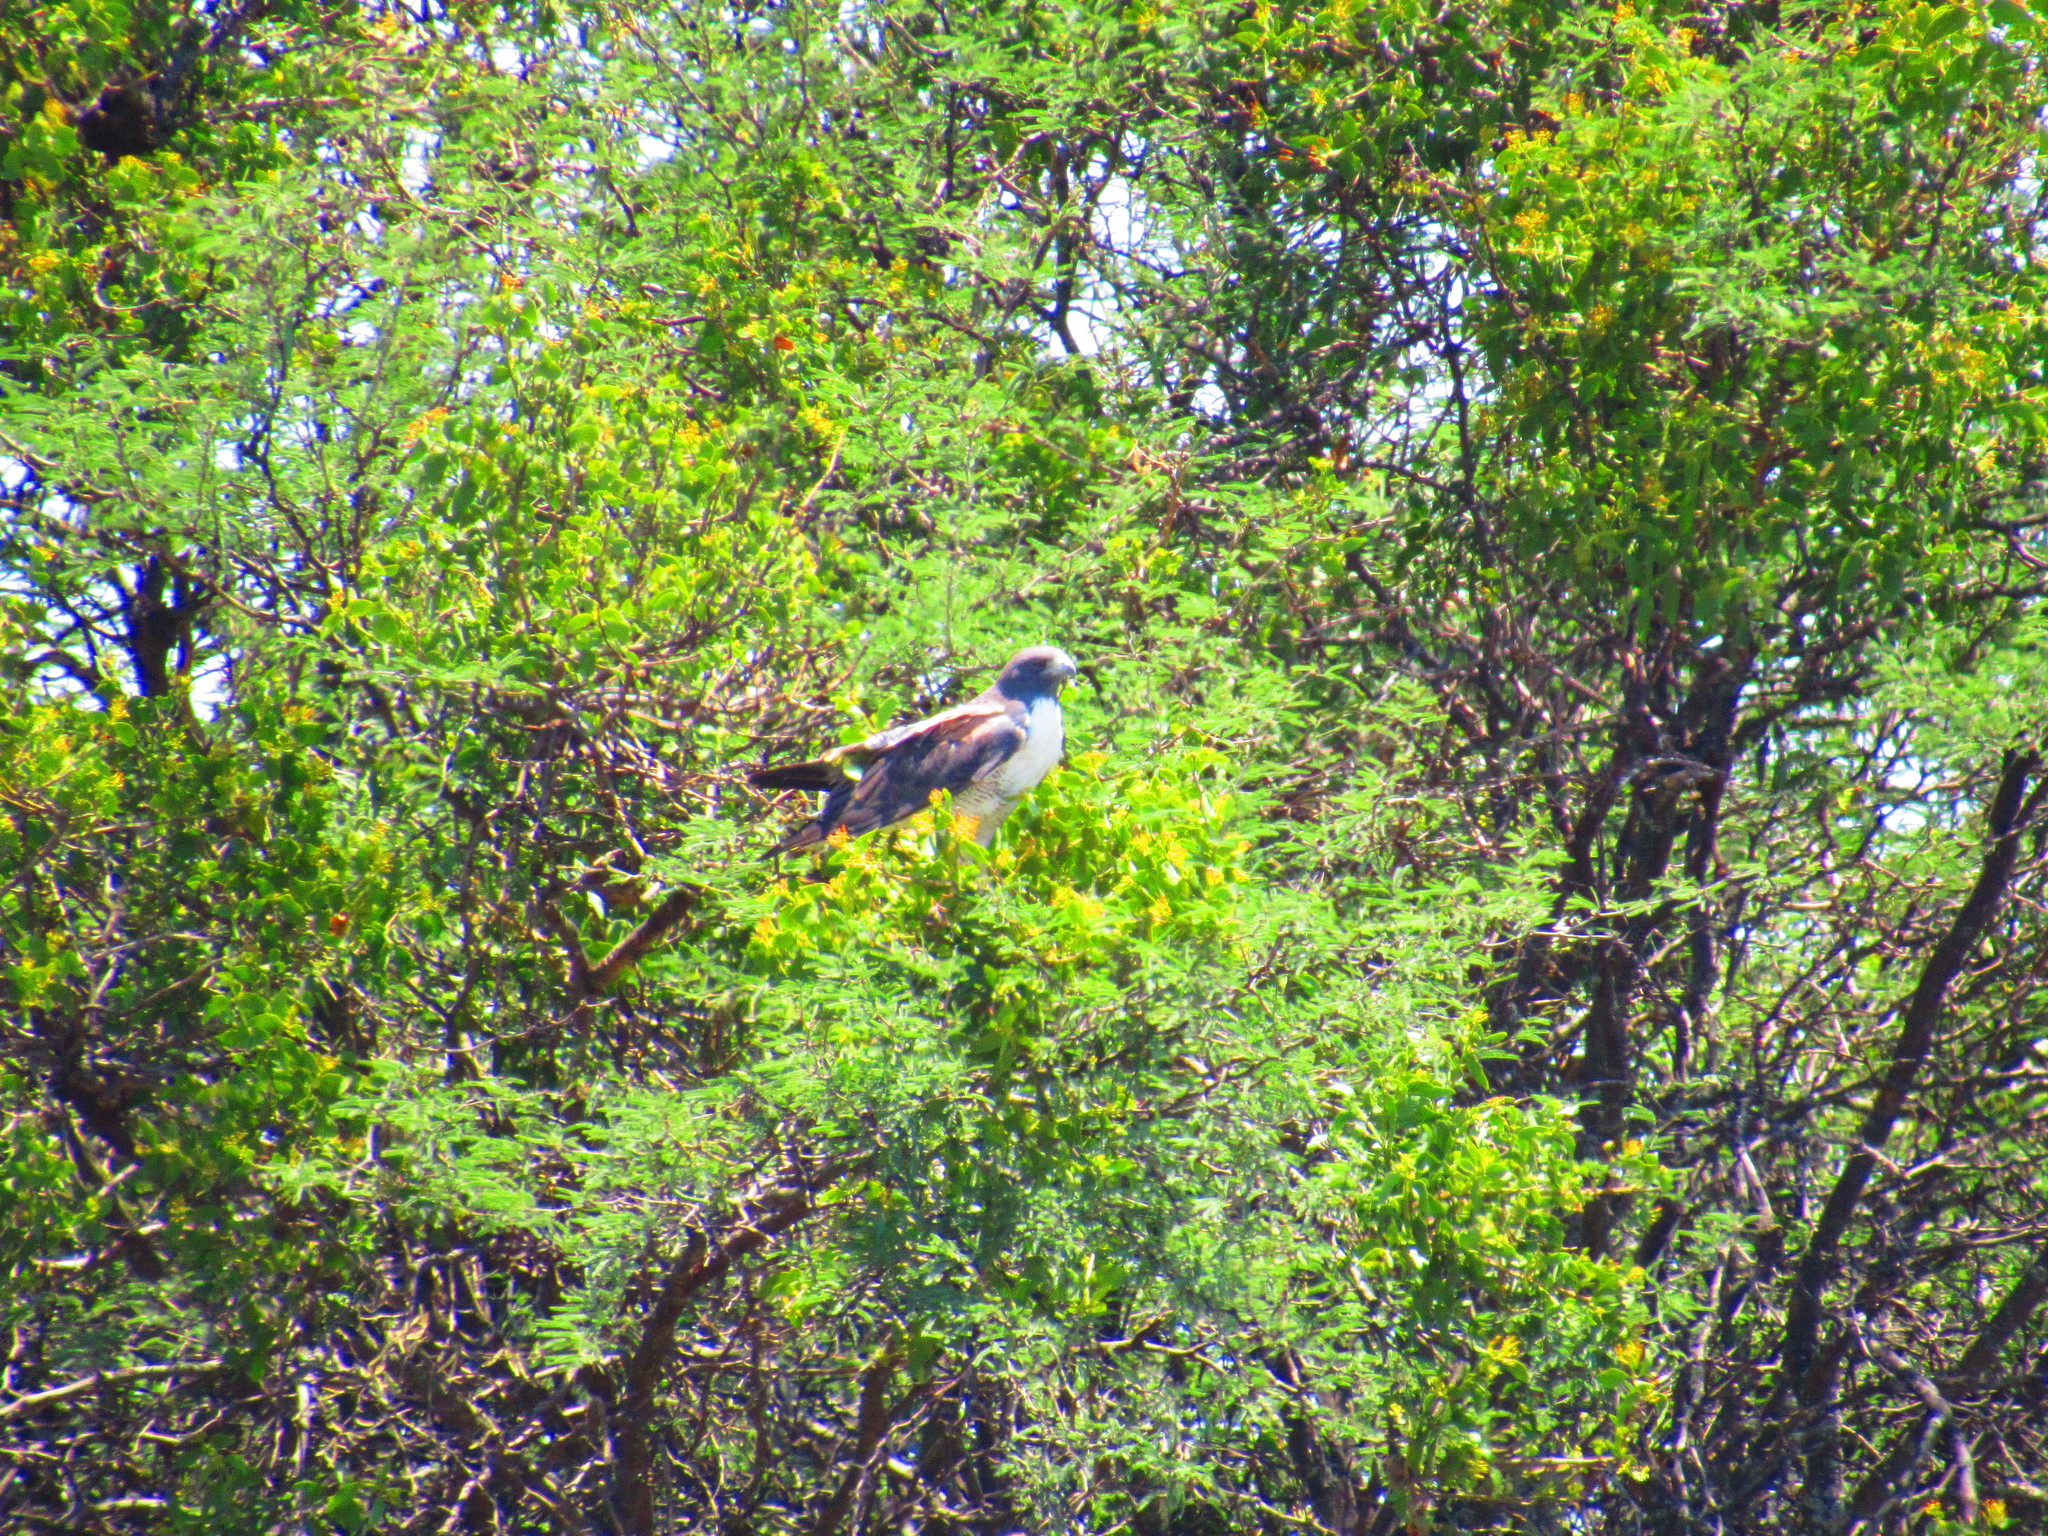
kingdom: Animalia
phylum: Chordata
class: Aves
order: Accipitriformes
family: Accipitridae
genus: Buteo
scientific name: Buteo albicaudatus
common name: White-tailed hawk
